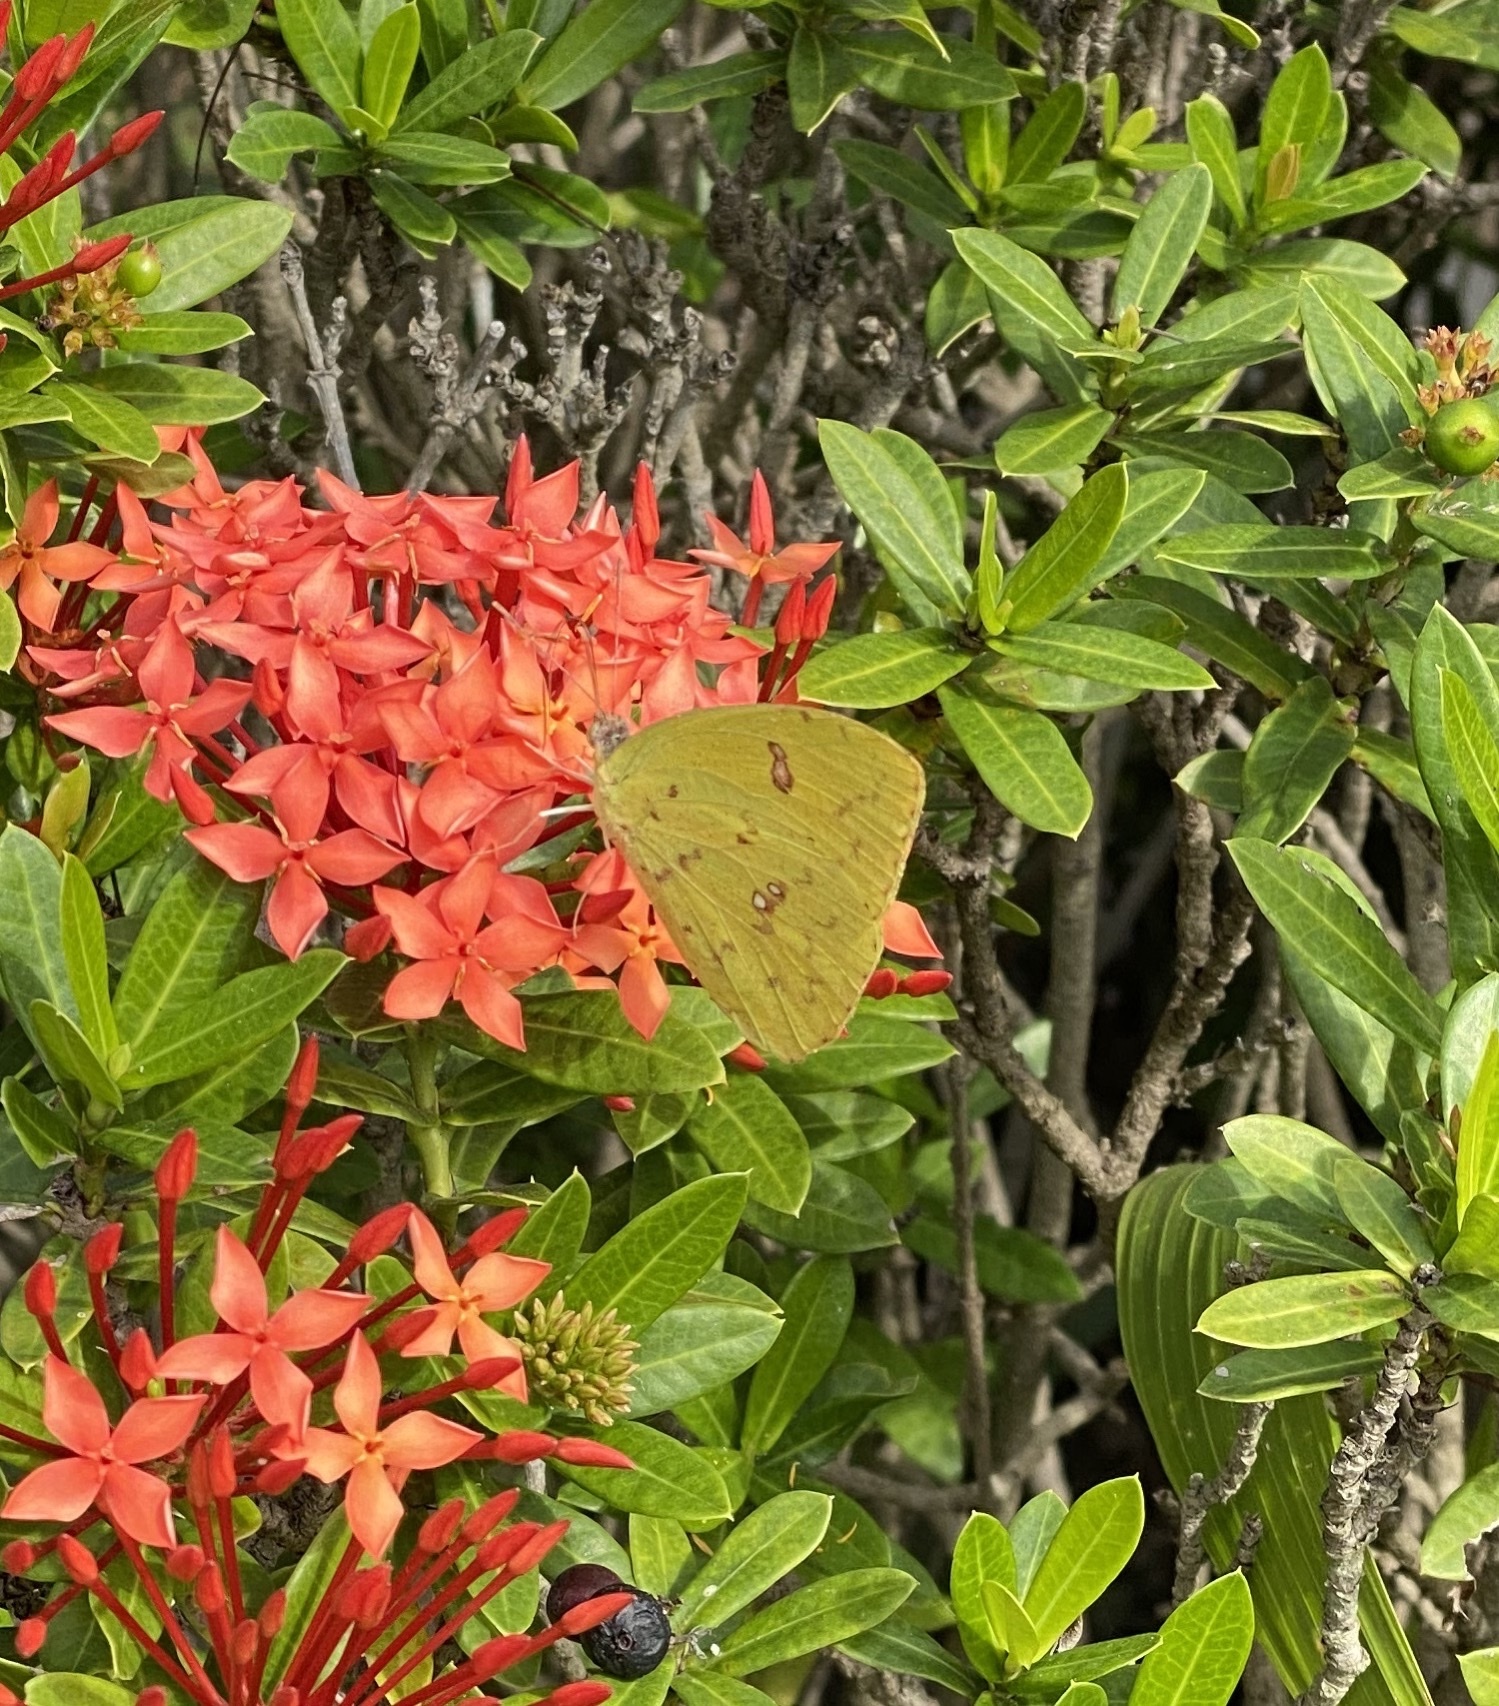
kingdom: Animalia
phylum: Arthropoda
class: Insecta
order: Lepidoptera
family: Pieridae
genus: Phoebis
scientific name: Phoebis marcellina
